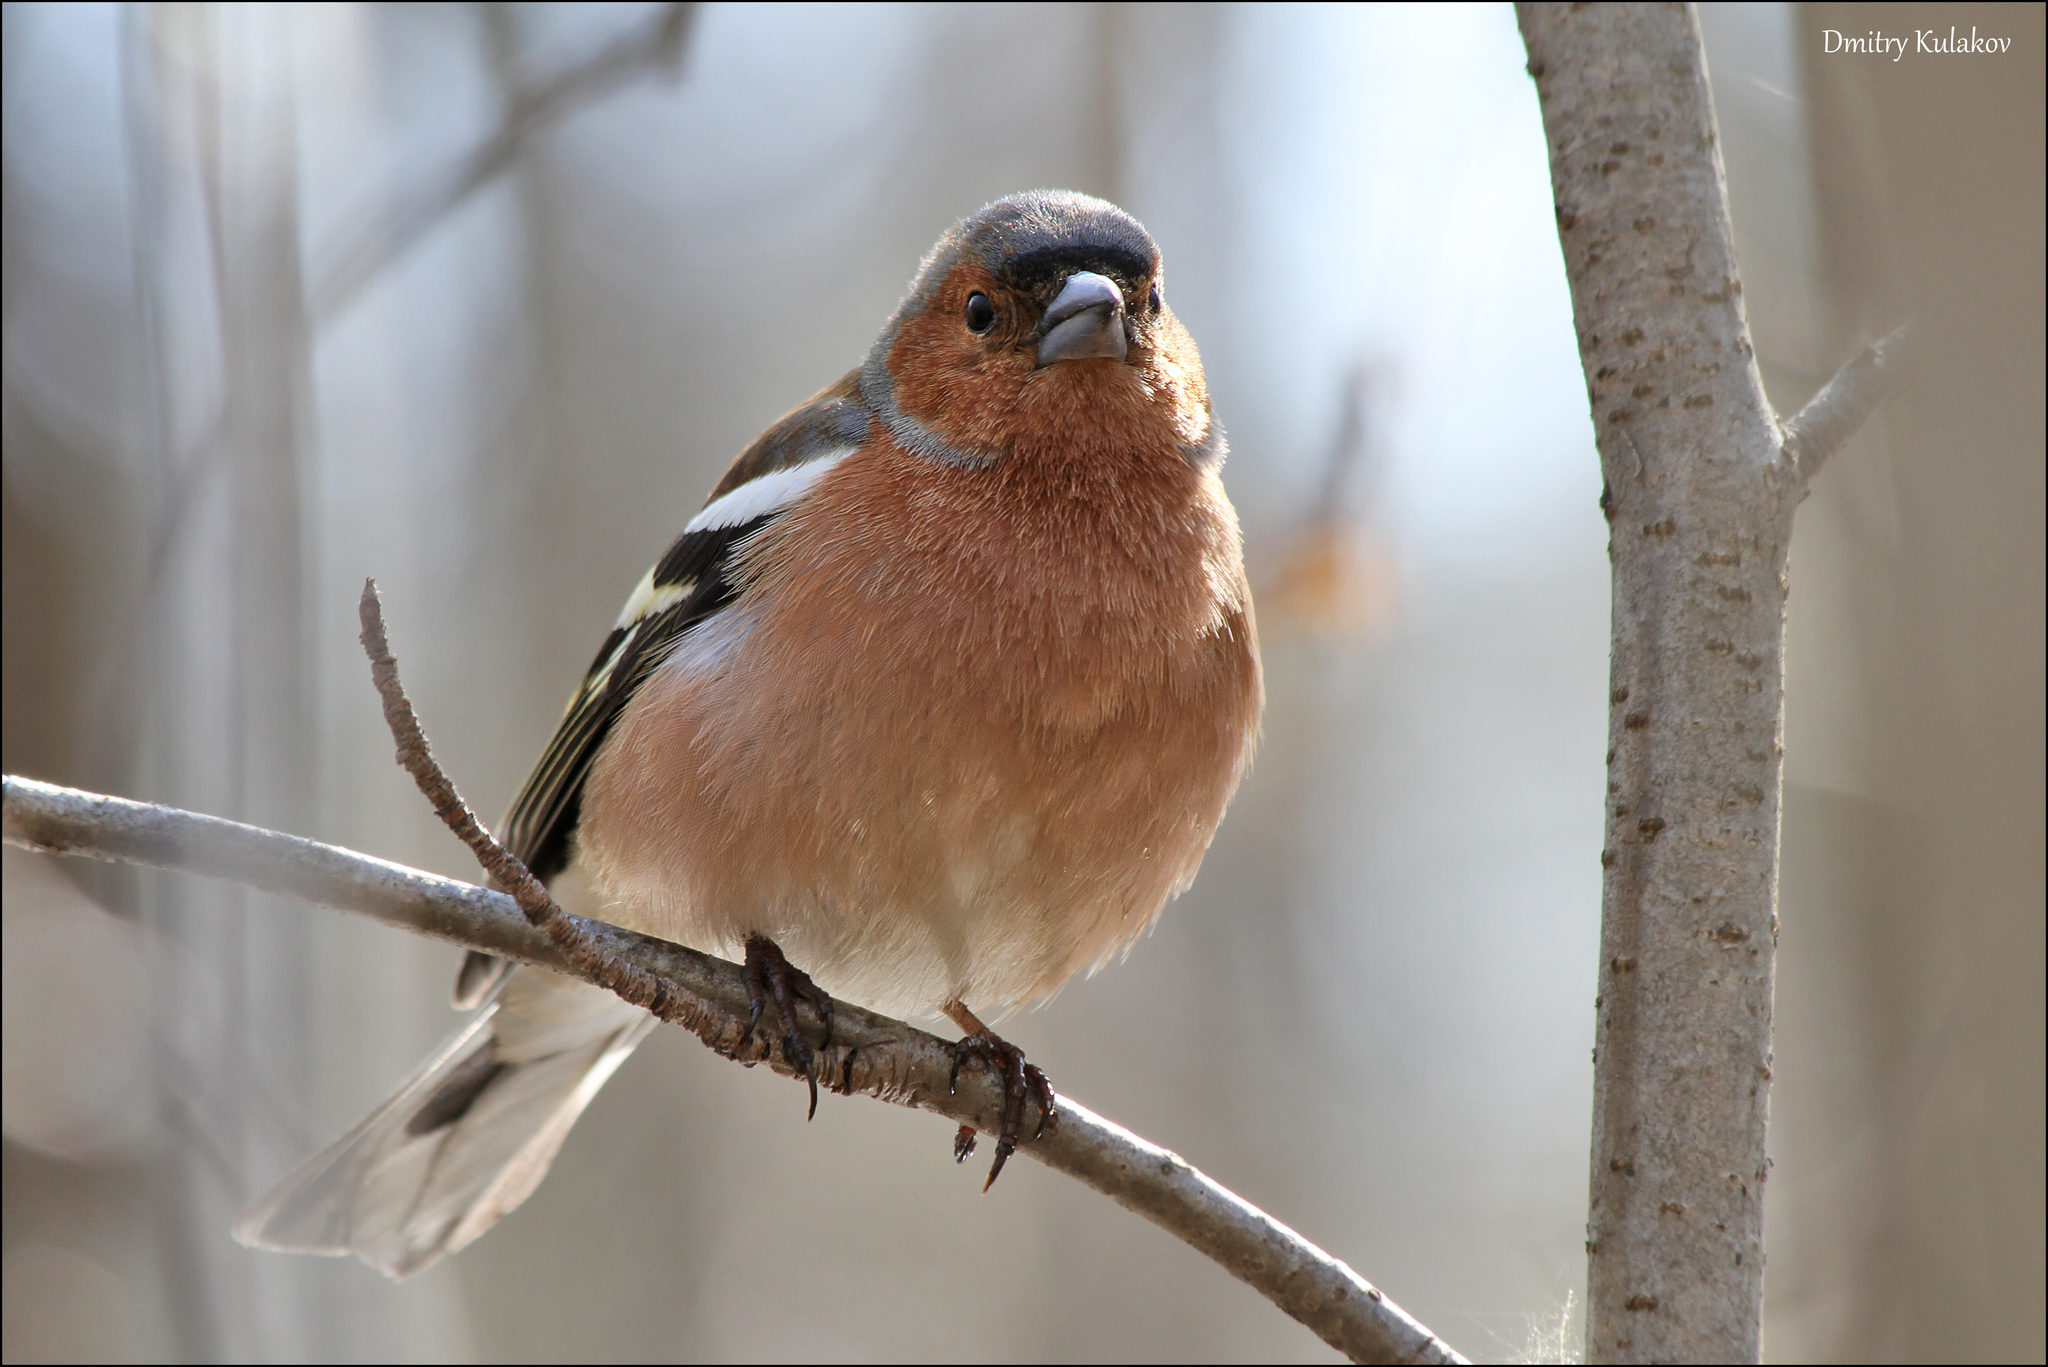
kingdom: Animalia
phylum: Chordata
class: Aves
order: Passeriformes
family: Fringillidae
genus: Fringilla
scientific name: Fringilla coelebs
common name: Common chaffinch
